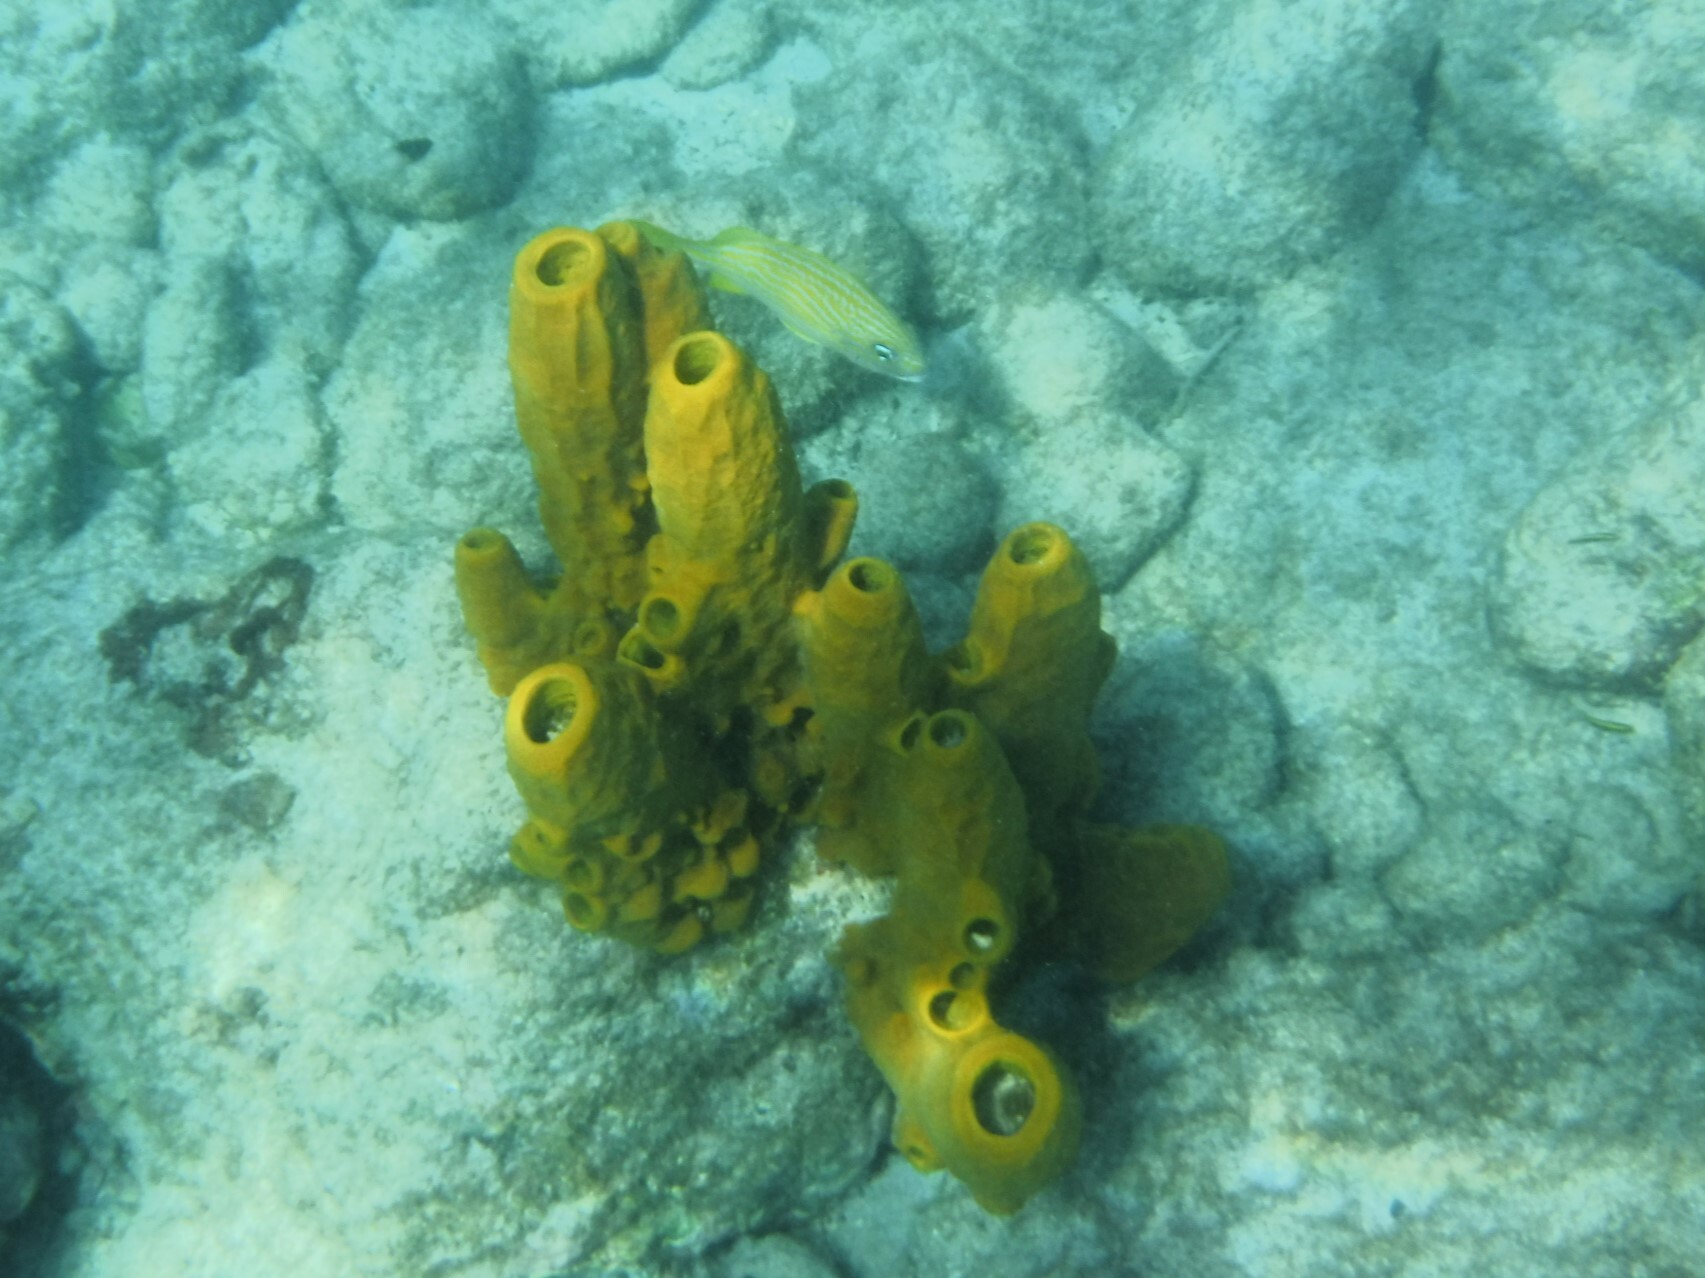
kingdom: Animalia
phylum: Porifera
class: Demospongiae
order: Verongiida
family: Aplysinidae
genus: Aplysina
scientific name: Aplysina fistularis
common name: Candle sponge
